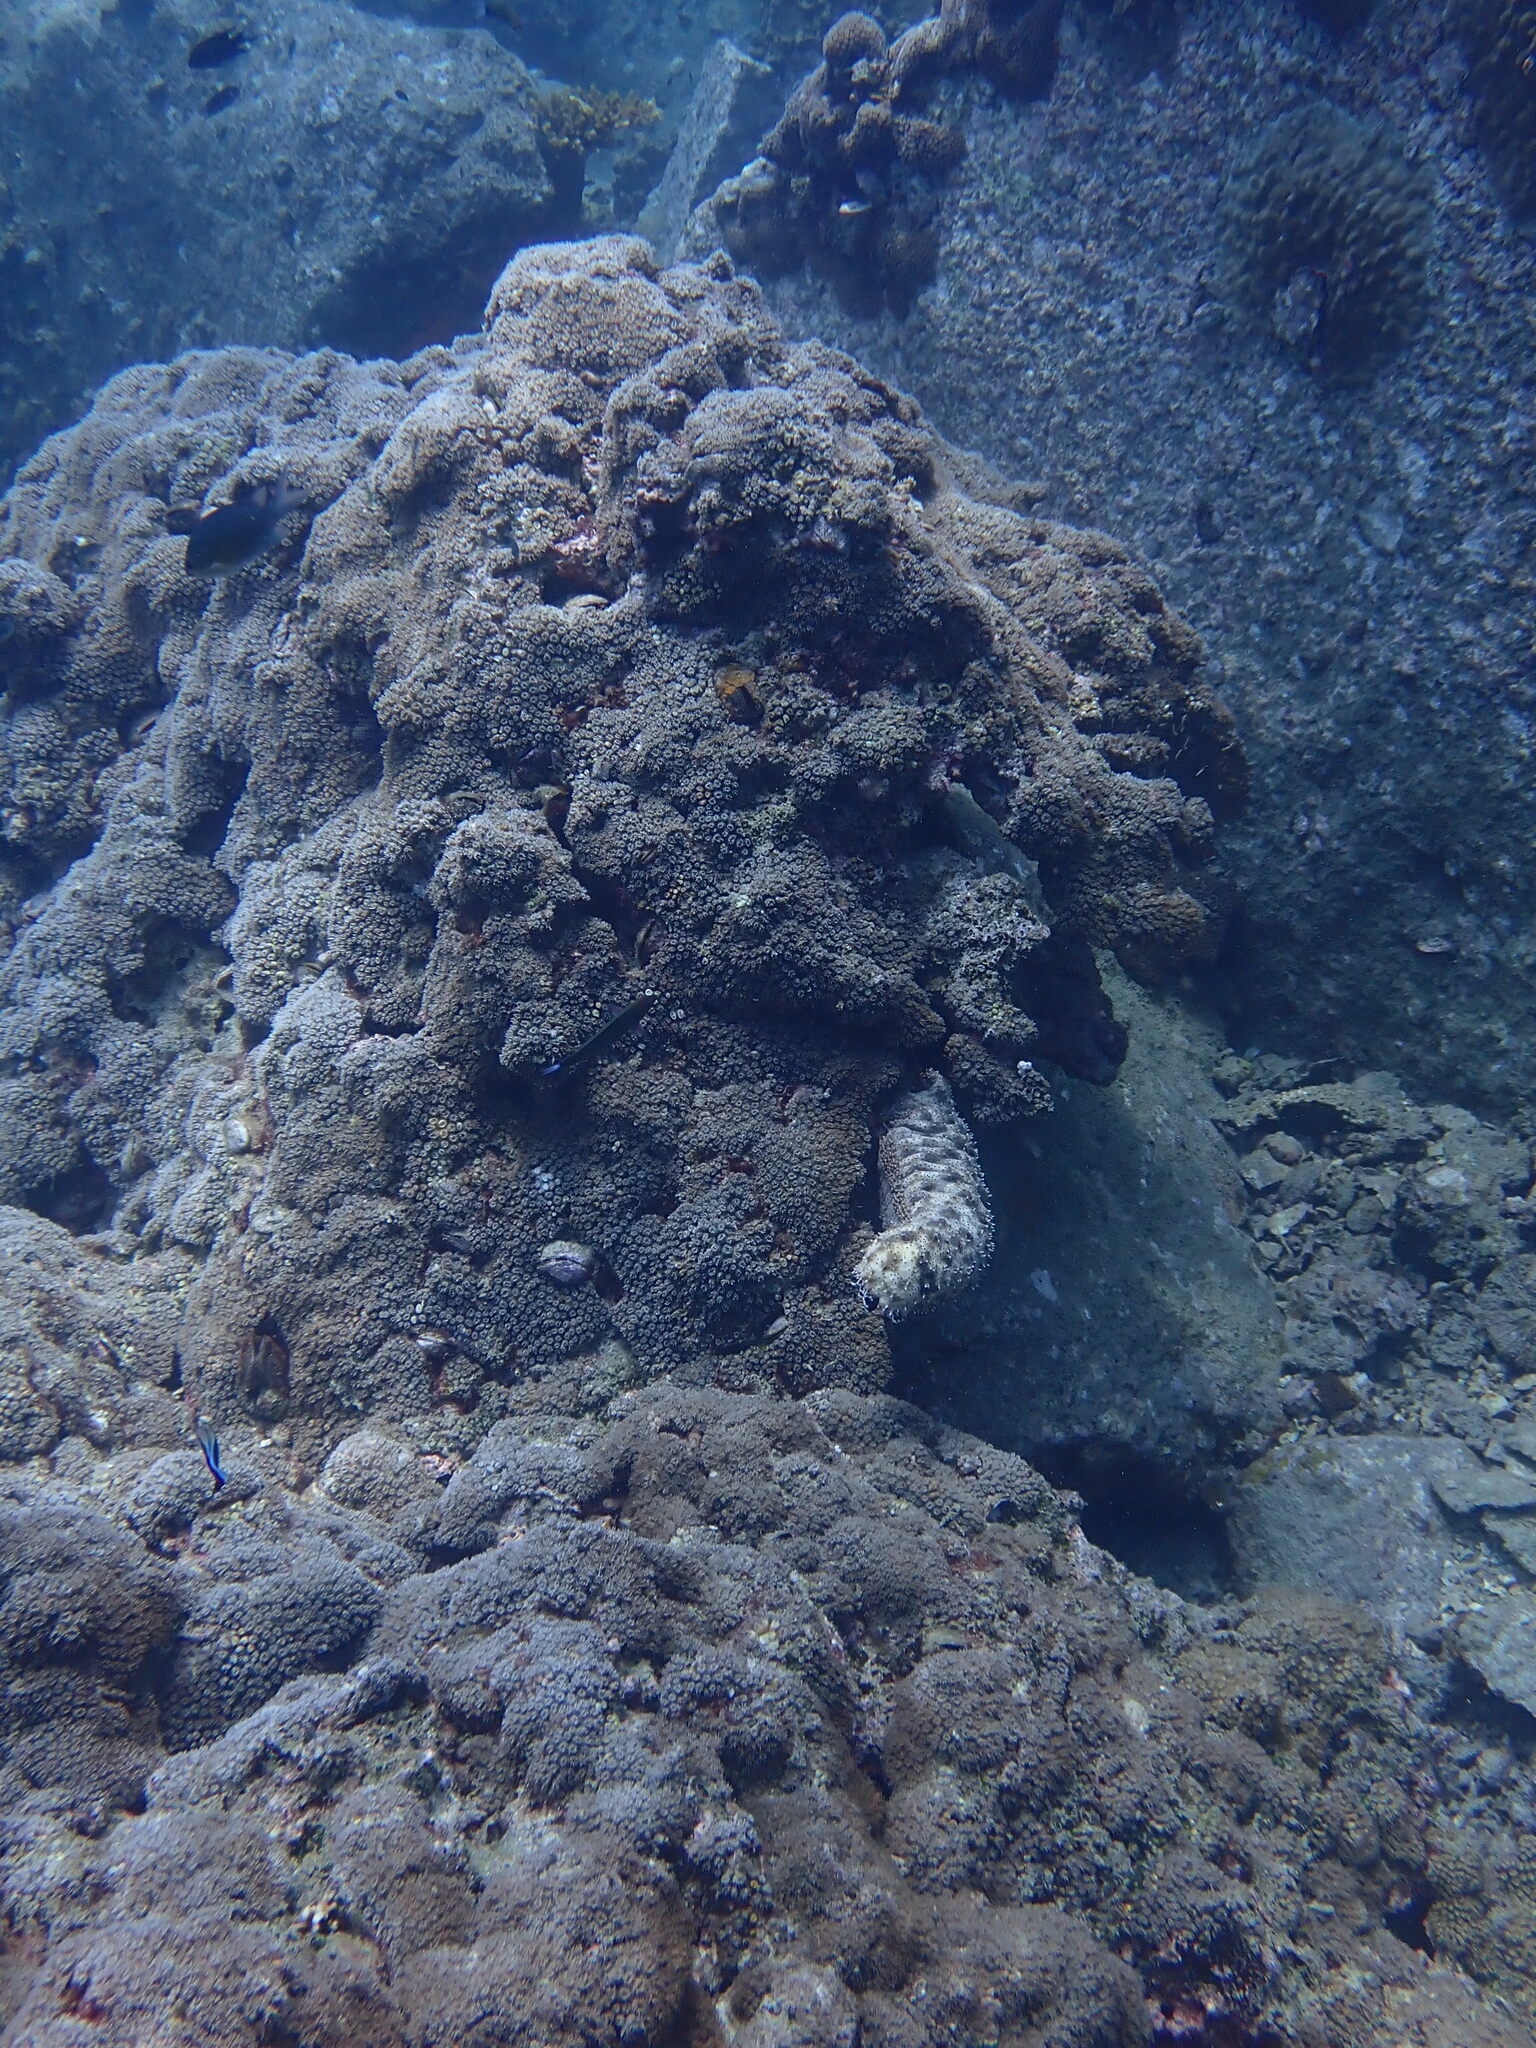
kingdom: Animalia
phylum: Echinodermata
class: Holothuroidea
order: Holothuriida
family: Holothuriidae
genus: Pearsonothuria
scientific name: Pearsonothuria graeffei
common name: Blackspotted sea cucumber
